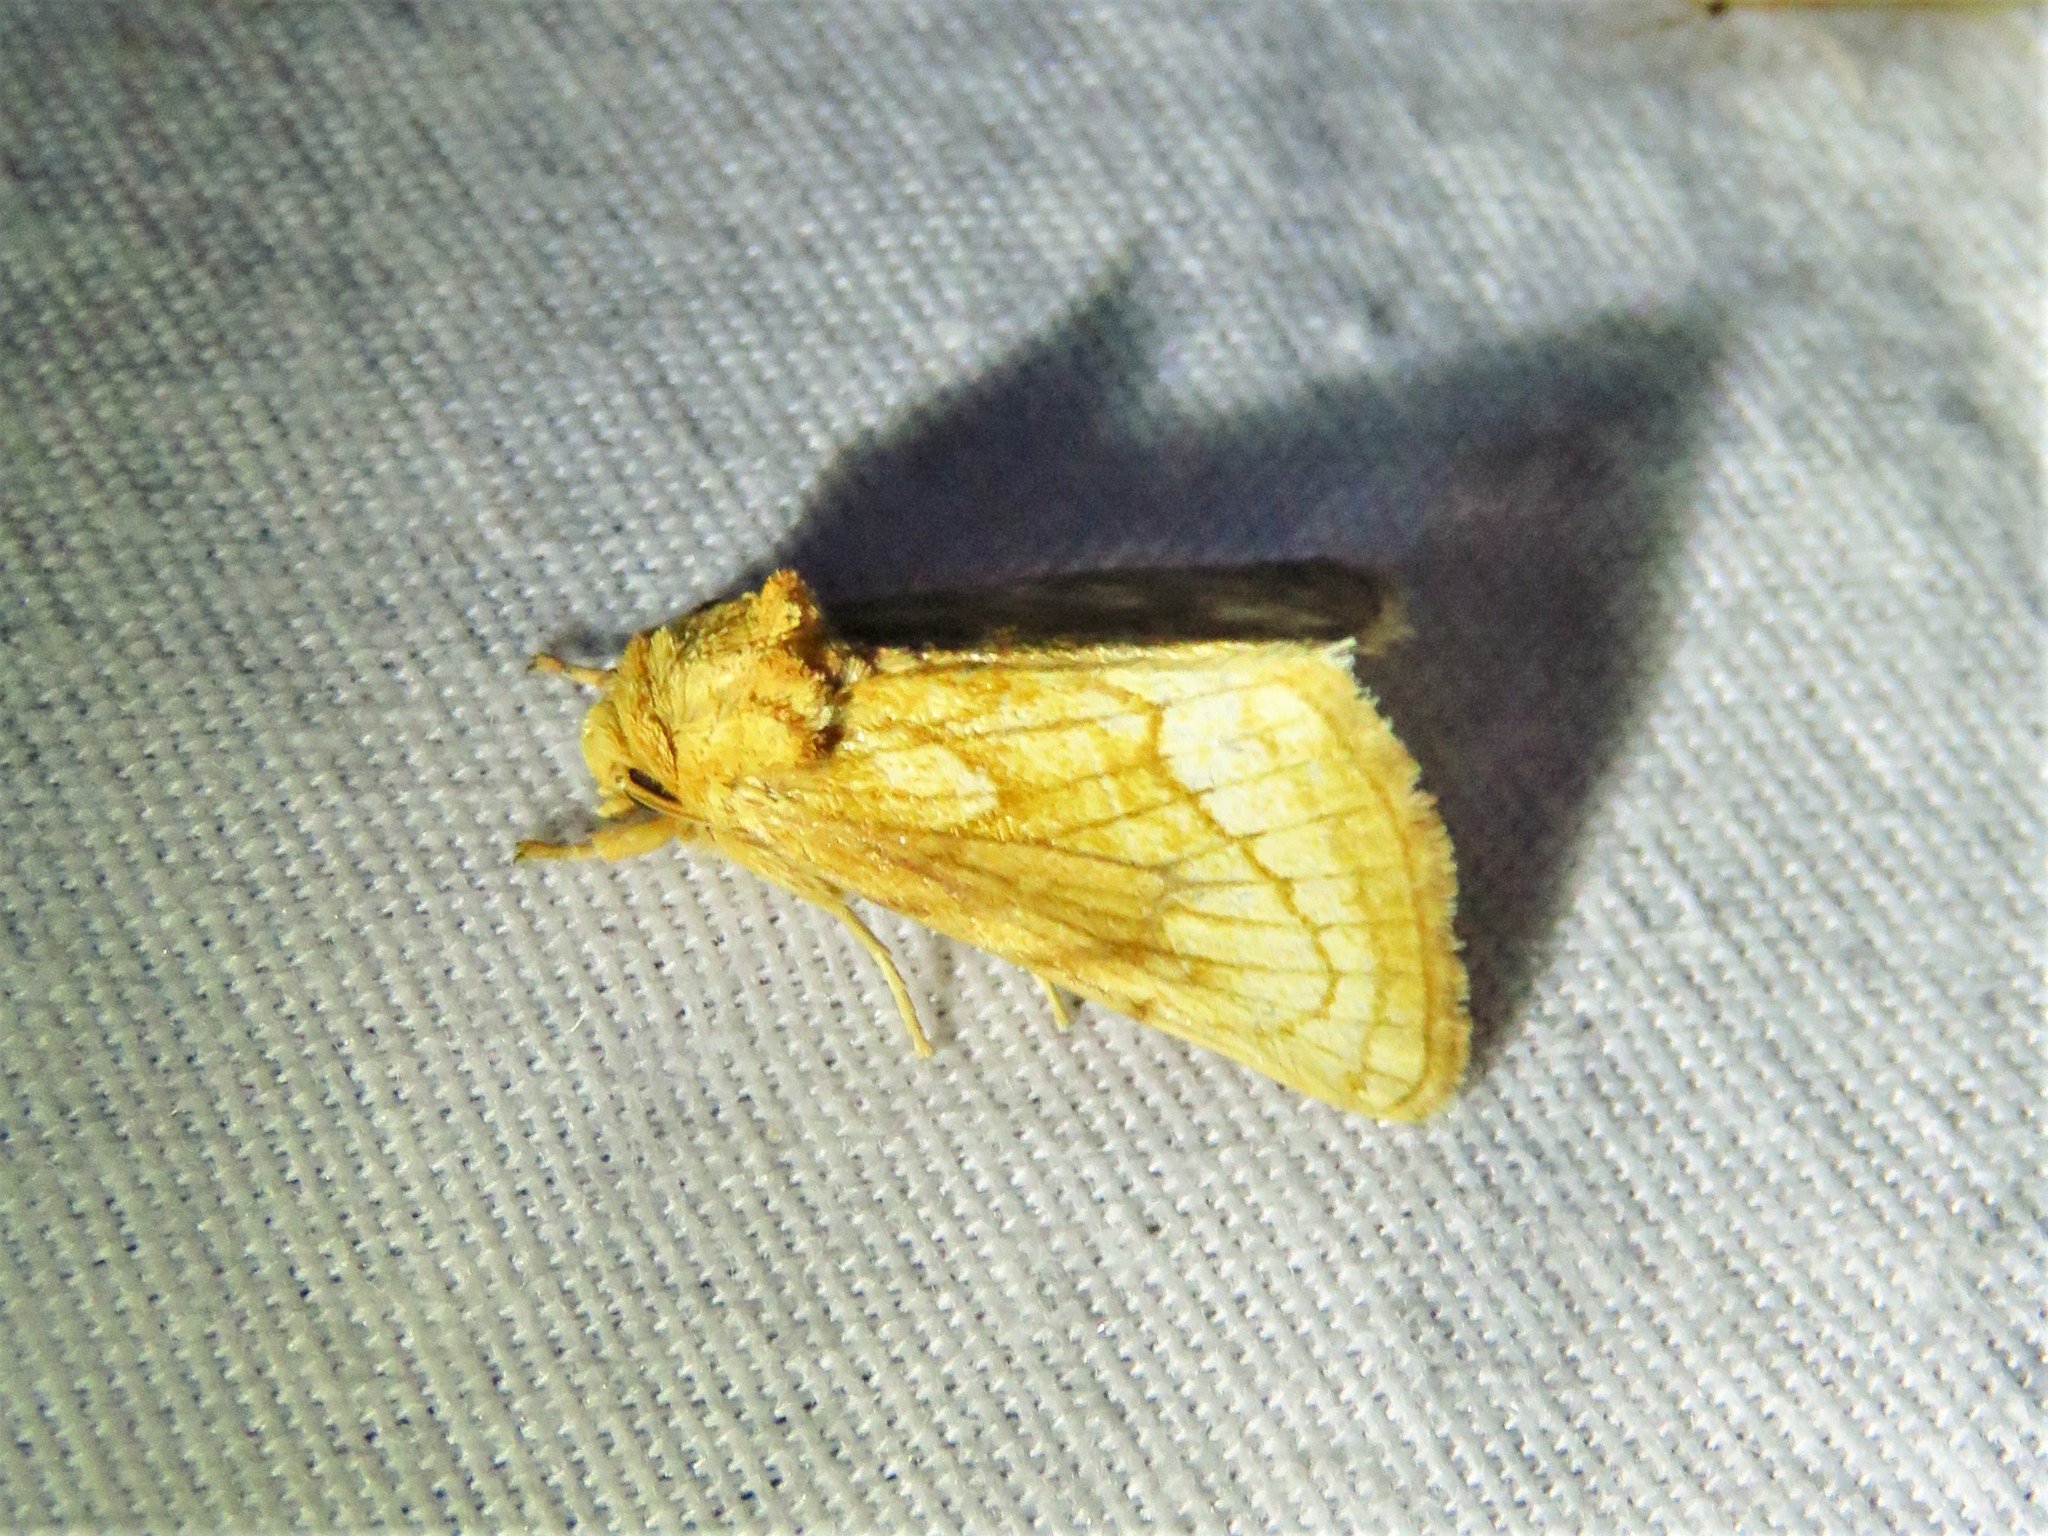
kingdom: Animalia
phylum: Arthropoda
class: Insecta
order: Lepidoptera
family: Noctuidae
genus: Nocloa
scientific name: Nocloa duplicatus
